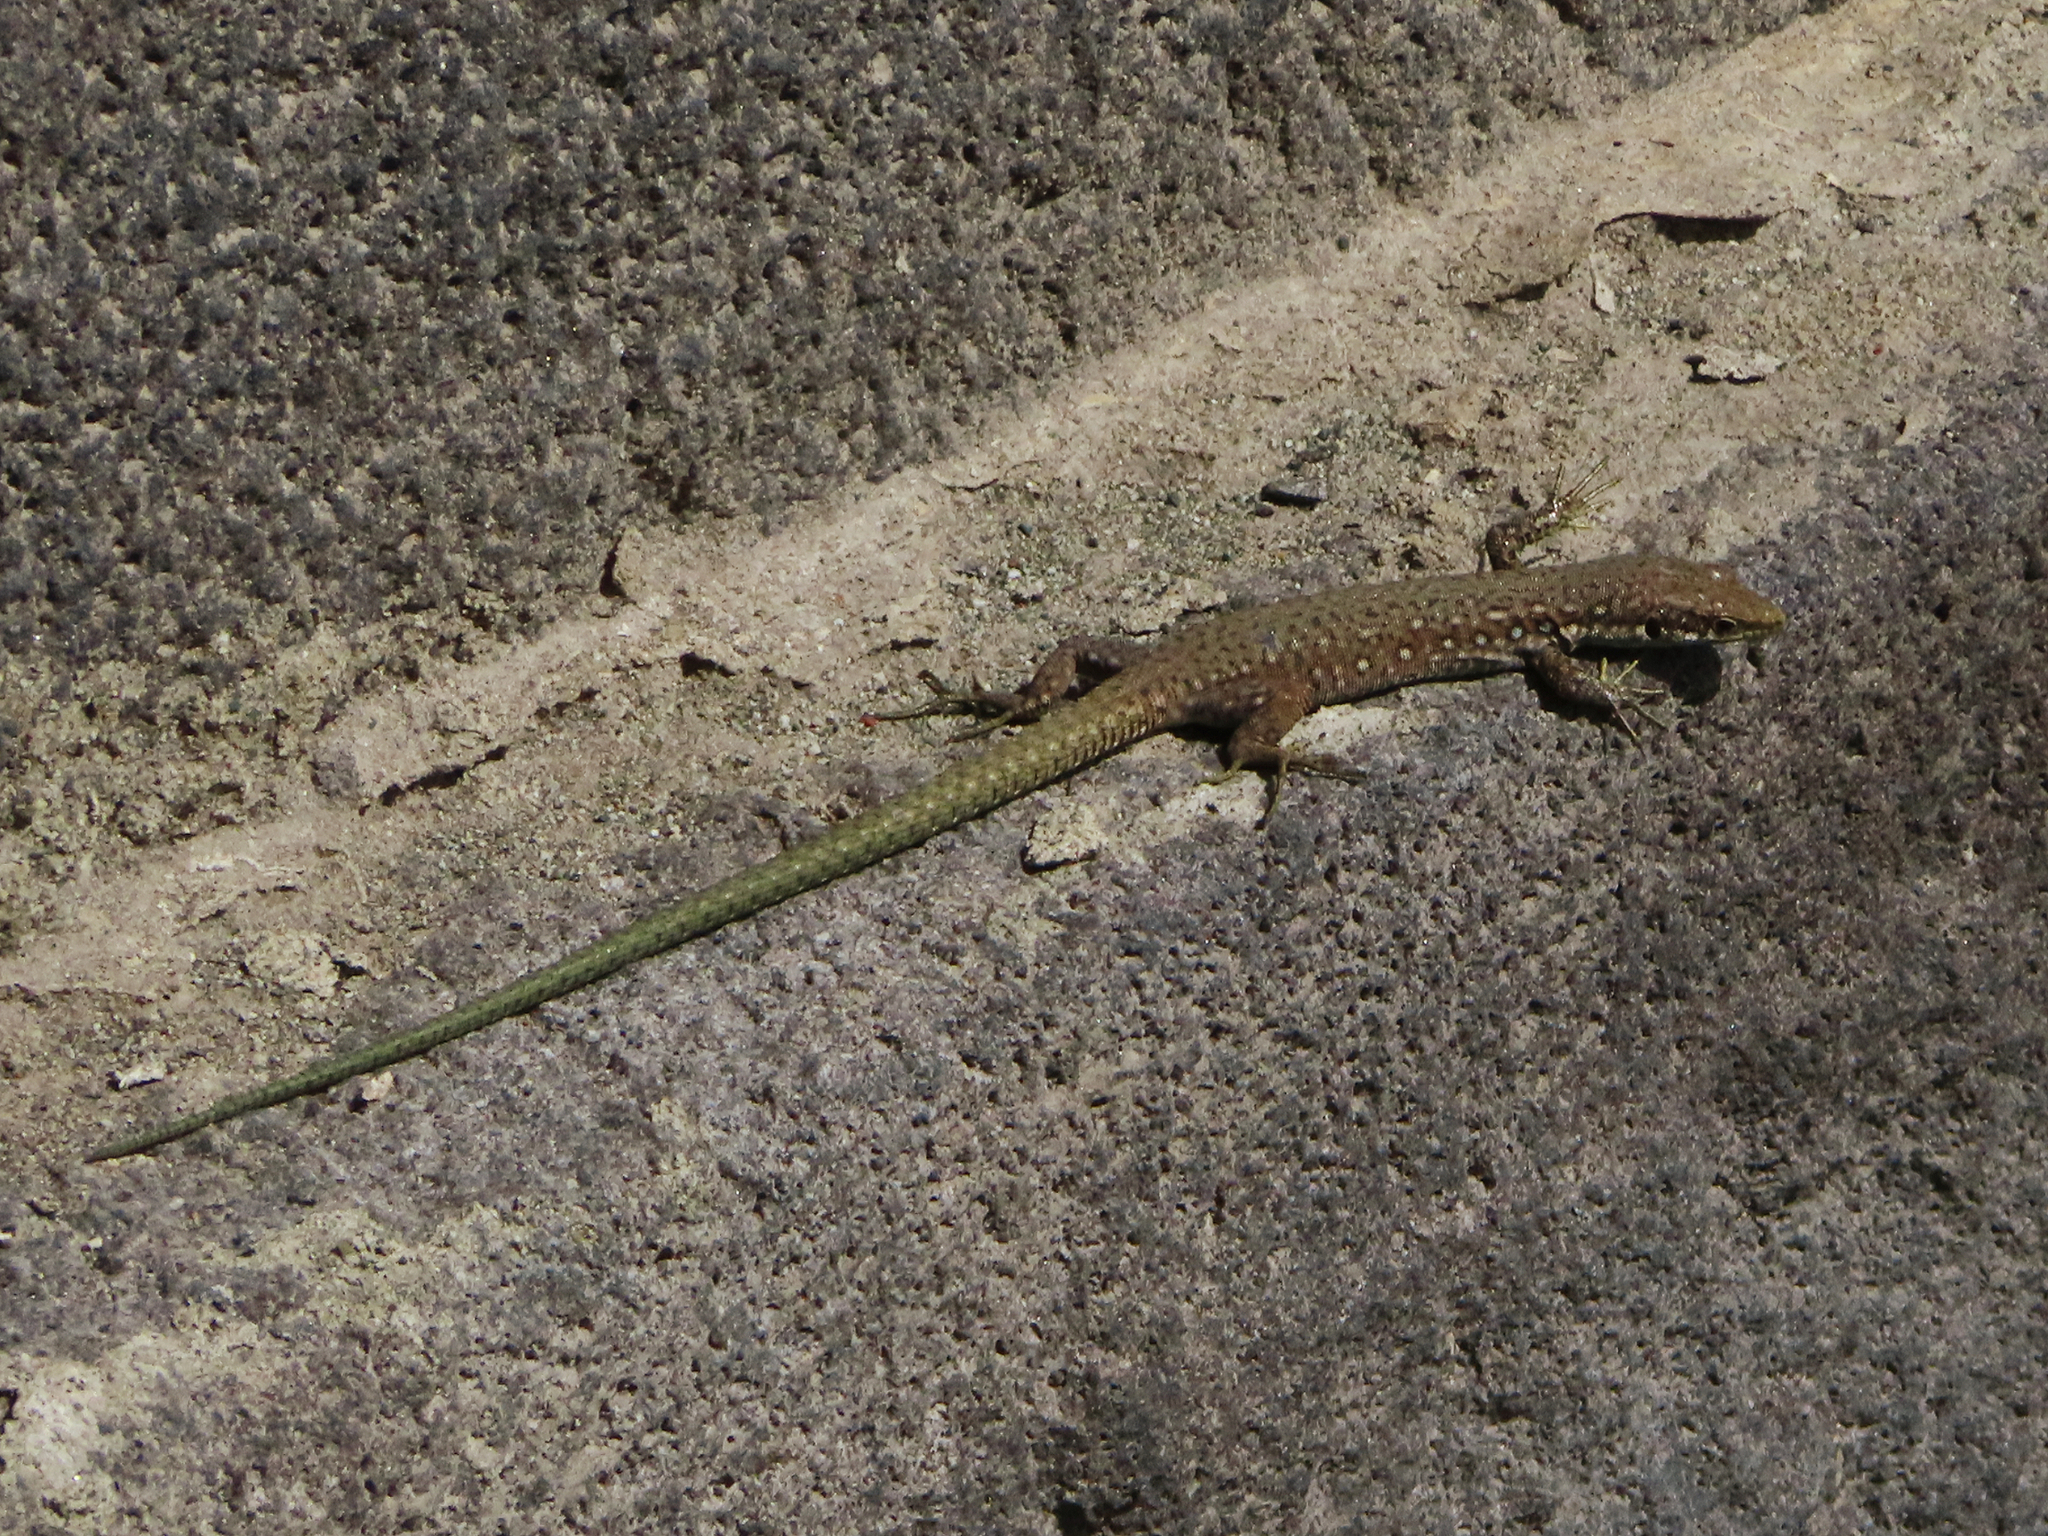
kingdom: Animalia
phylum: Chordata
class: Squamata
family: Lacertidae
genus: Darevskia
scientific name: Darevskia
